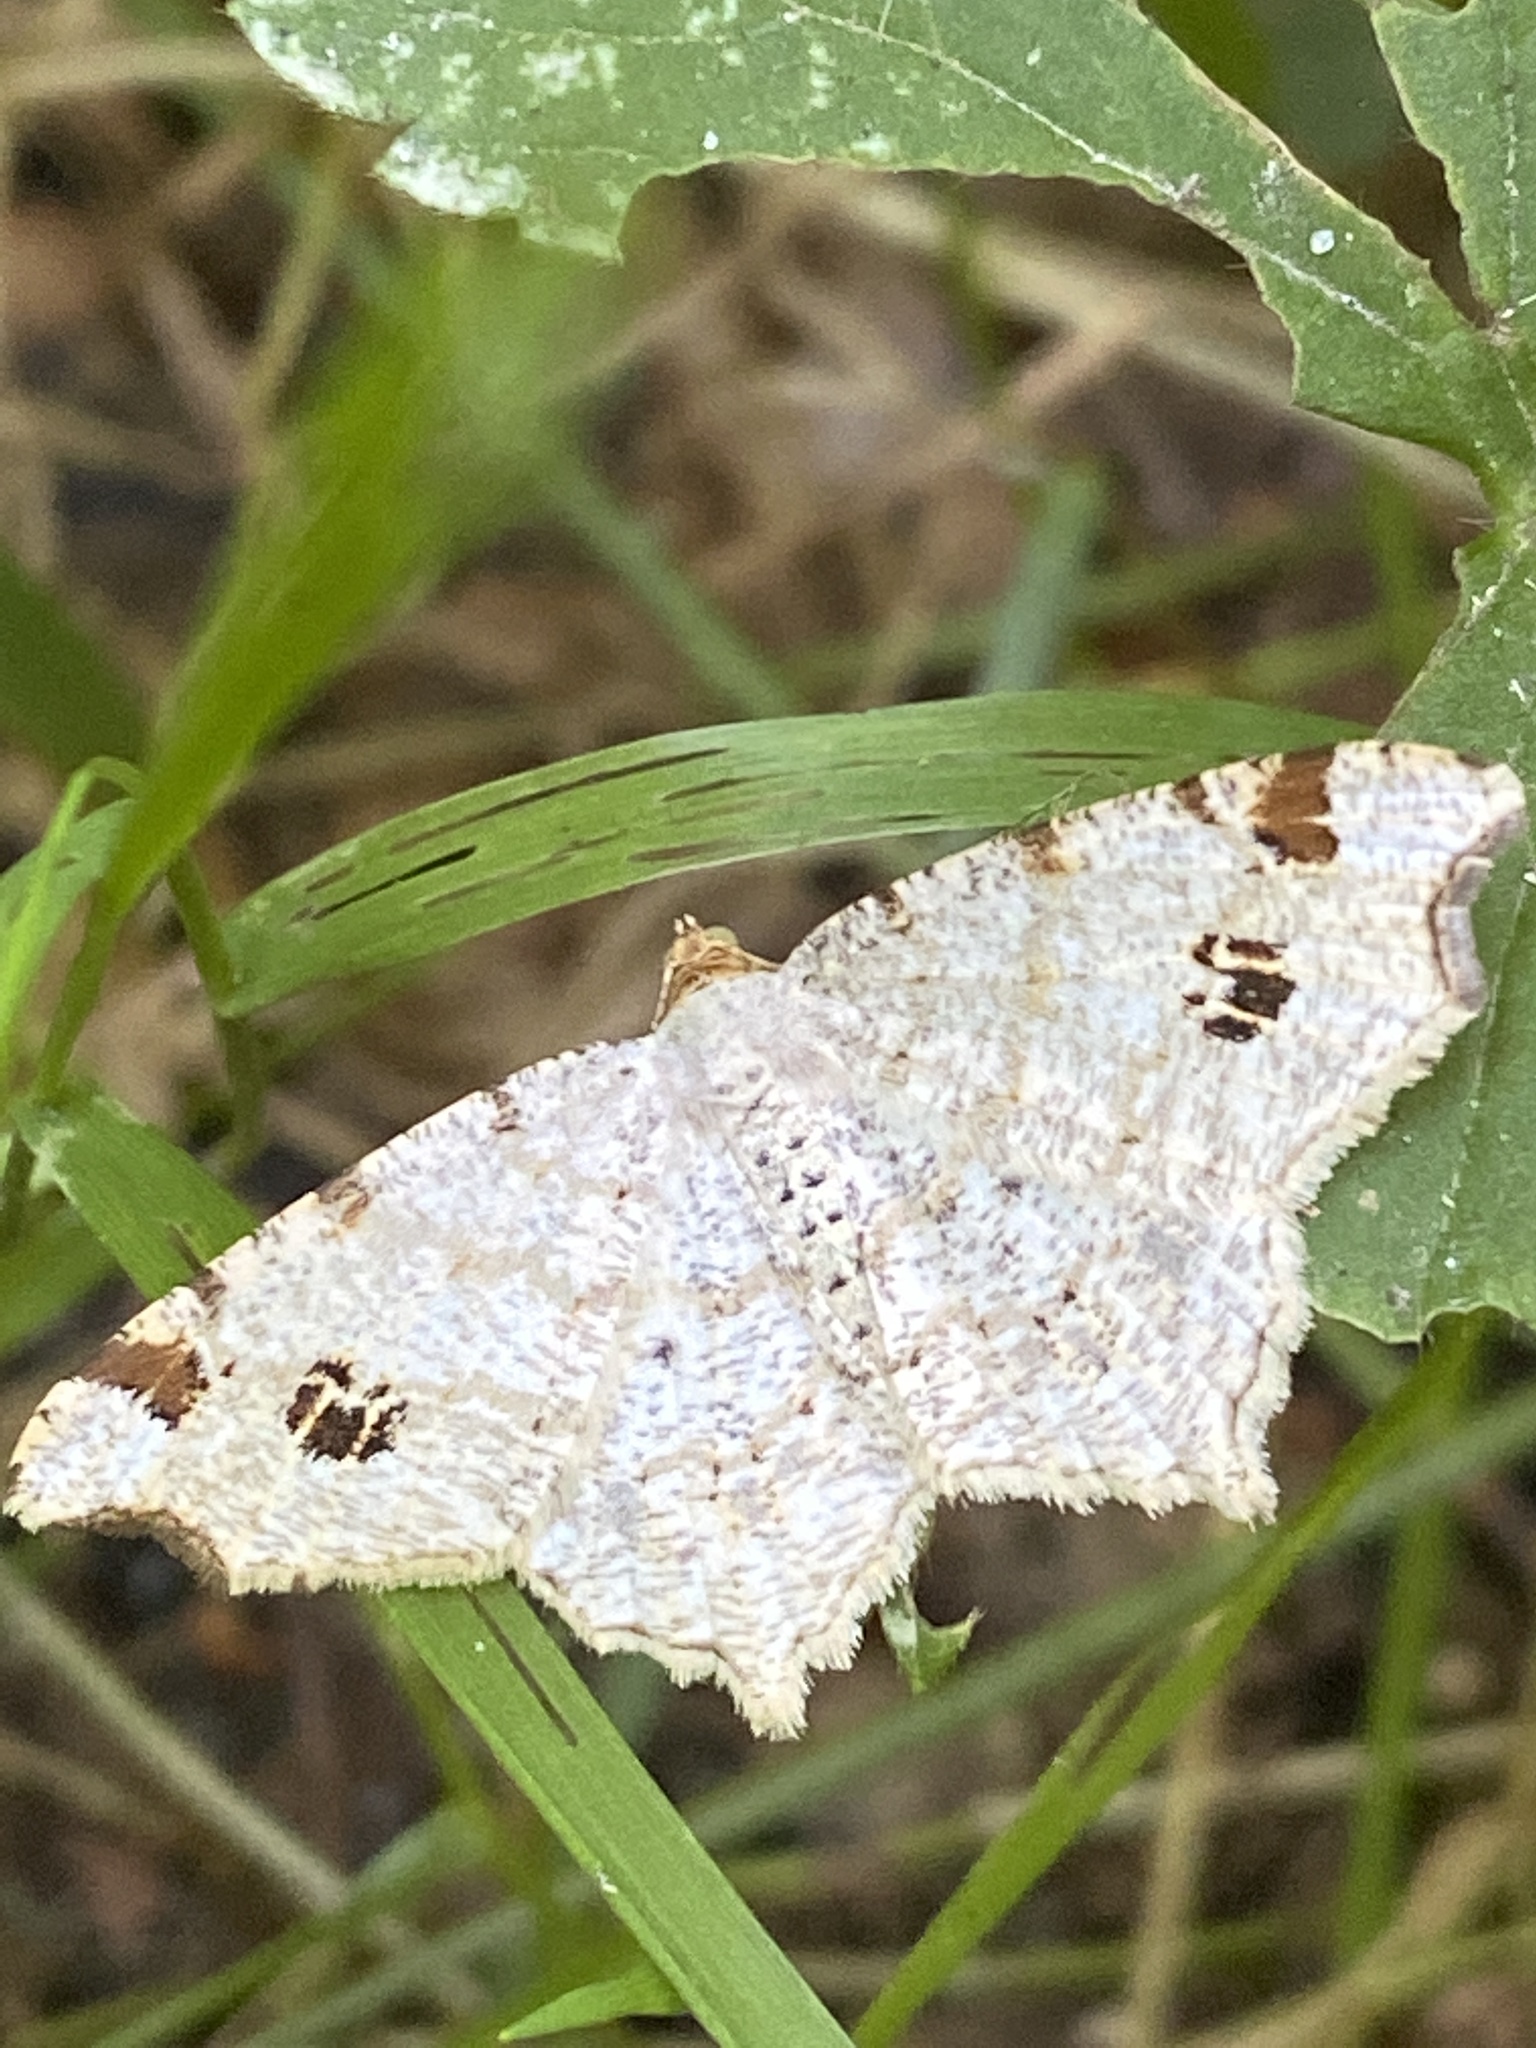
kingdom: Animalia
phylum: Arthropoda
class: Insecta
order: Lepidoptera
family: Geometridae
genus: Macaria
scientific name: Macaria notata
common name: Peacock moth
